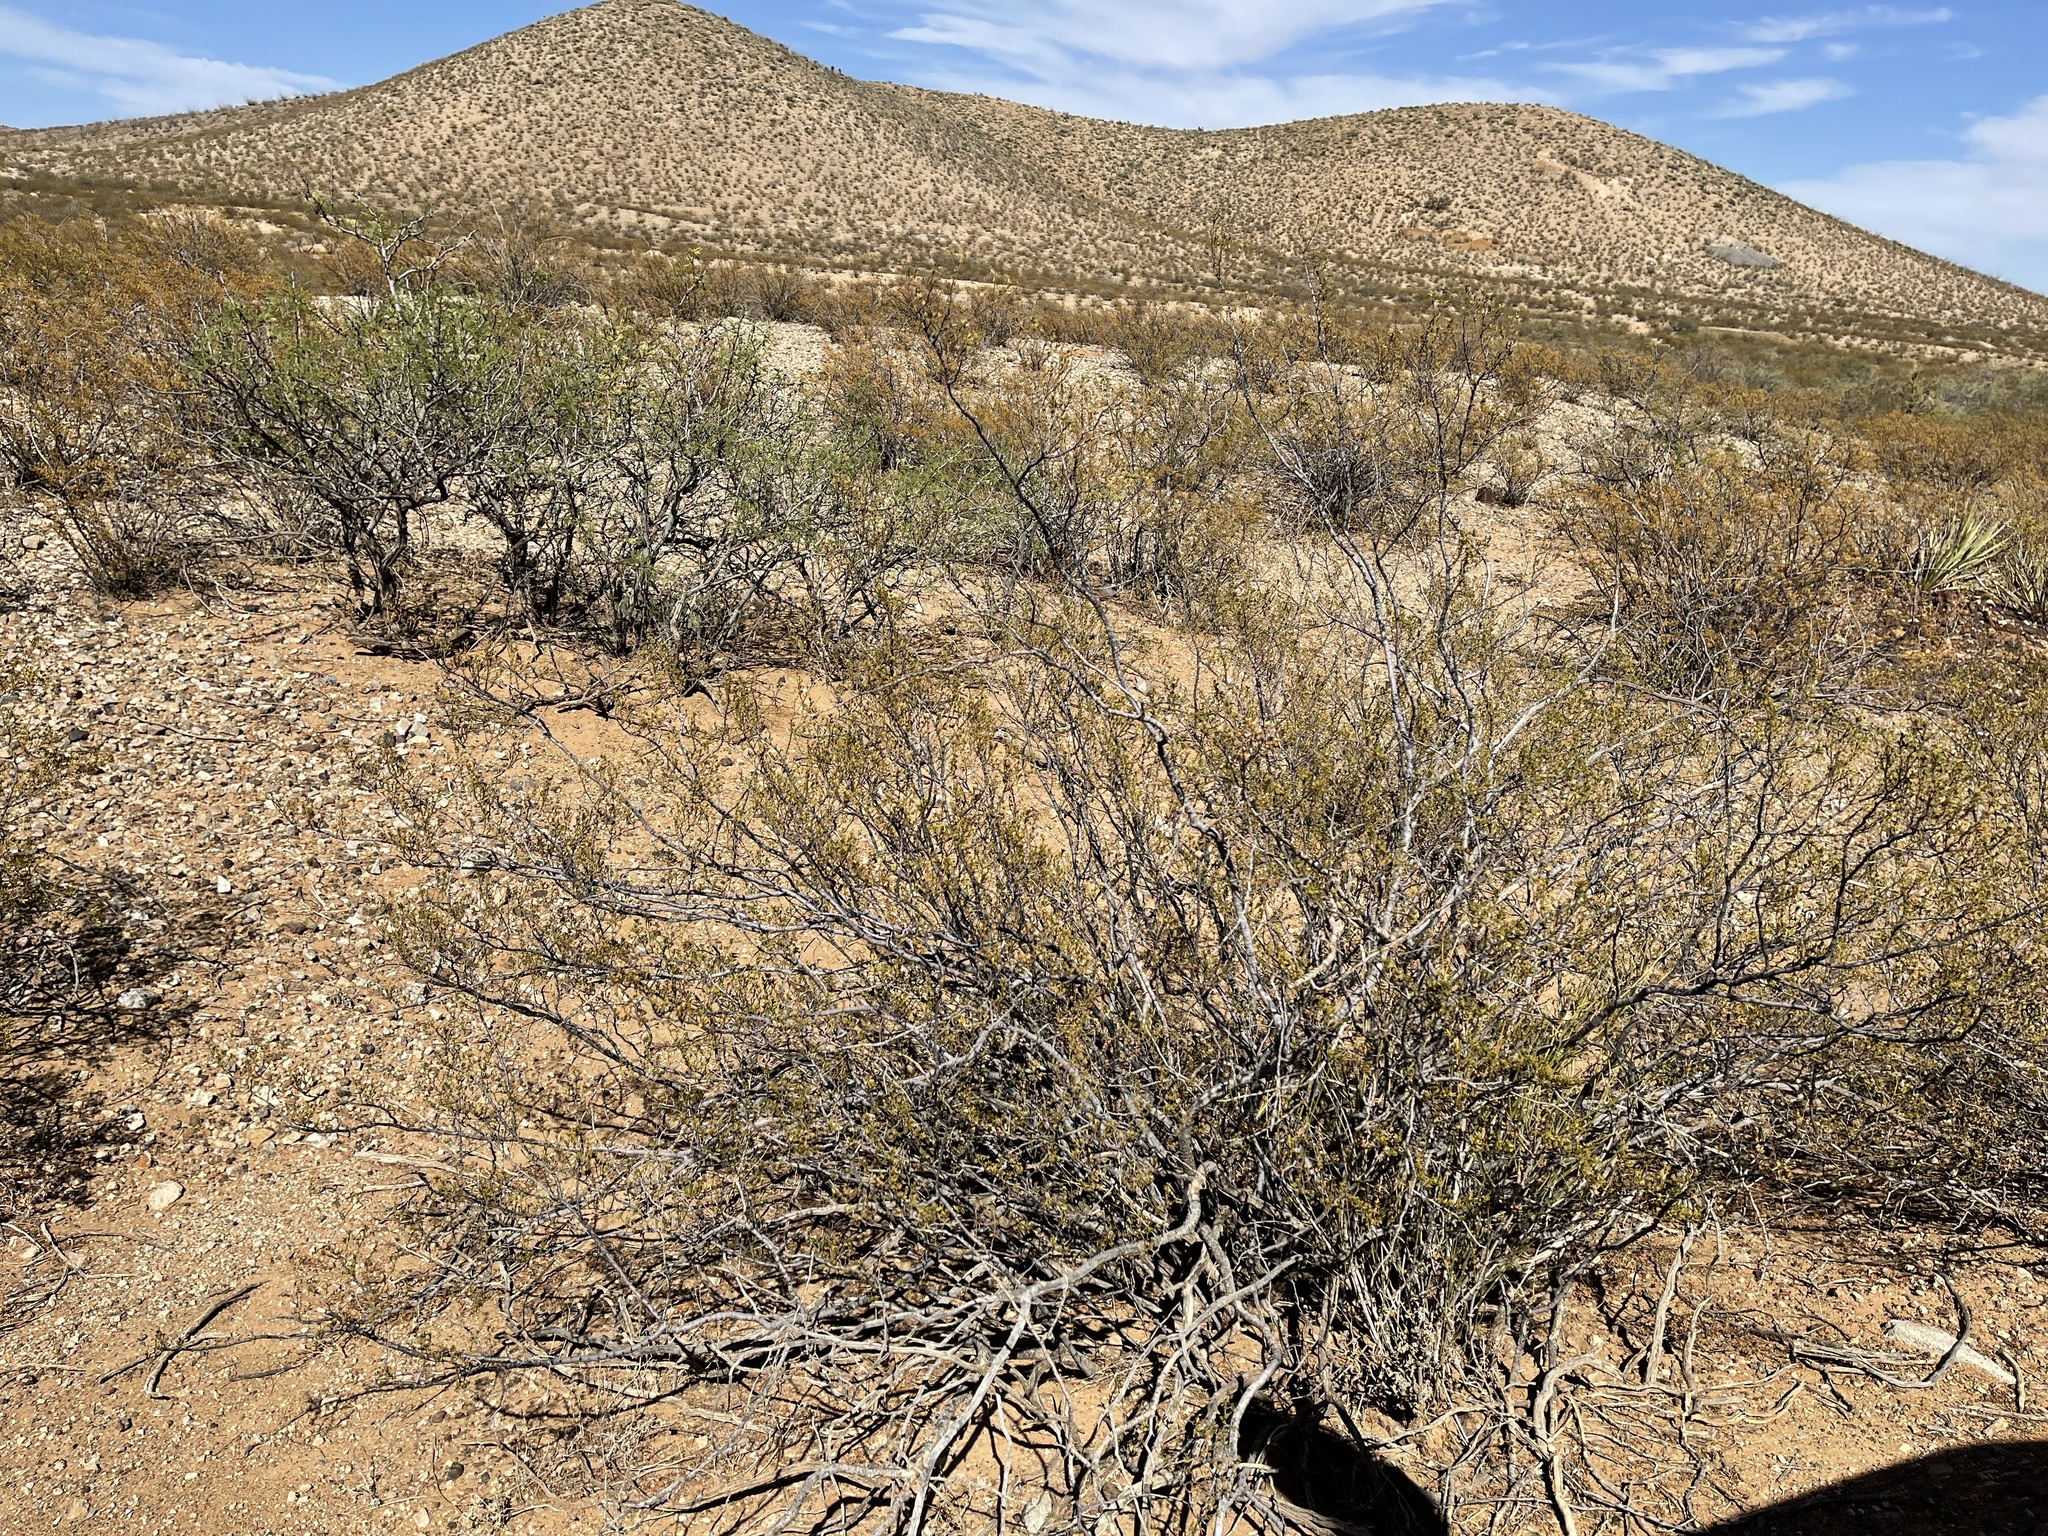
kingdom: Plantae
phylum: Tracheophyta
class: Magnoliopsida
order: Zygophyllales
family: Zygophyllaceae
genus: Larrea
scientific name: Larrea tridentata
